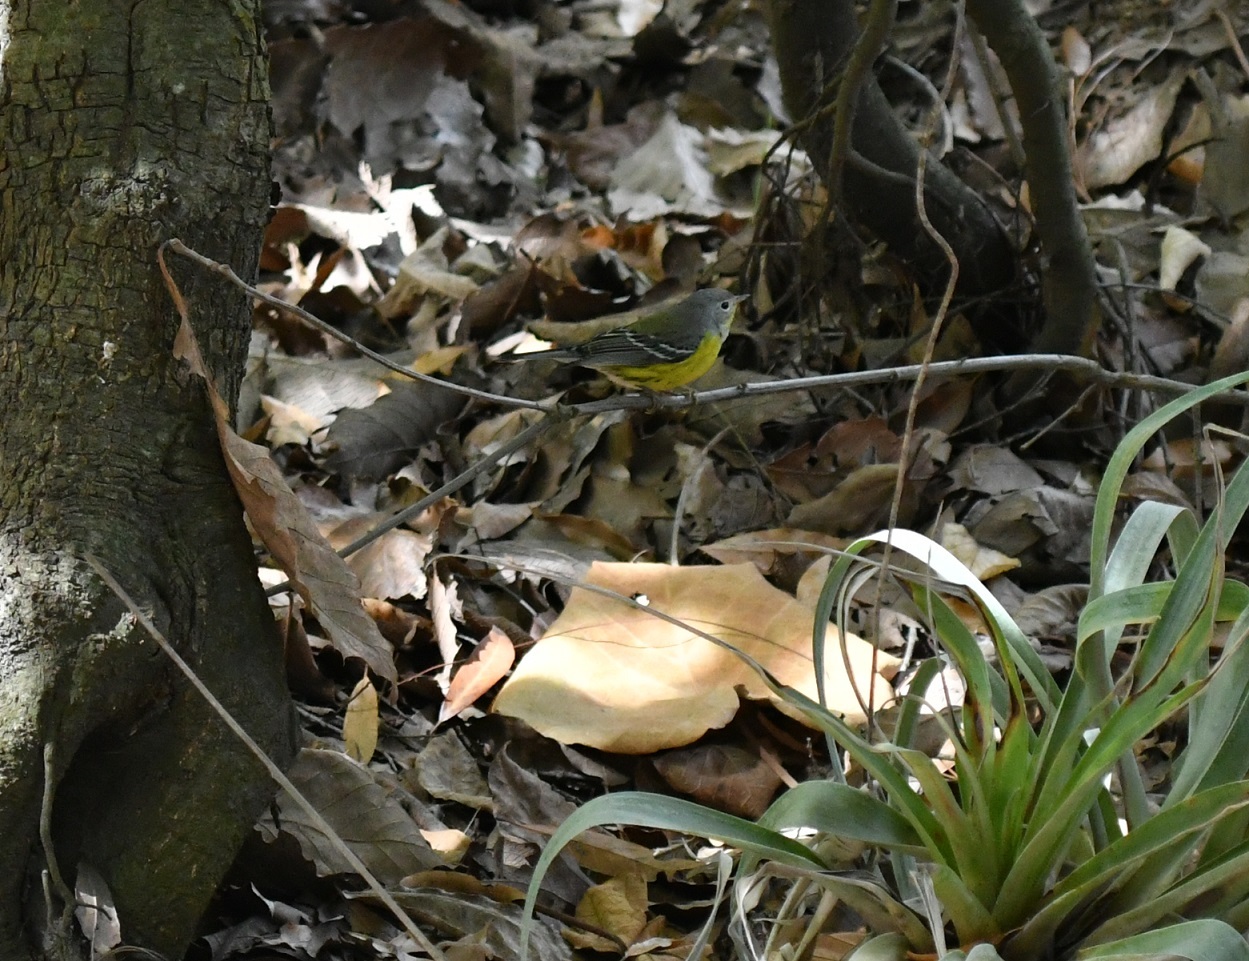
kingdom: Animalia
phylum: Chordata
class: Aves
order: Passeriformes
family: Parulidae
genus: Setophaga
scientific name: Setophaga magnolia
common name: Magnolia warbler
